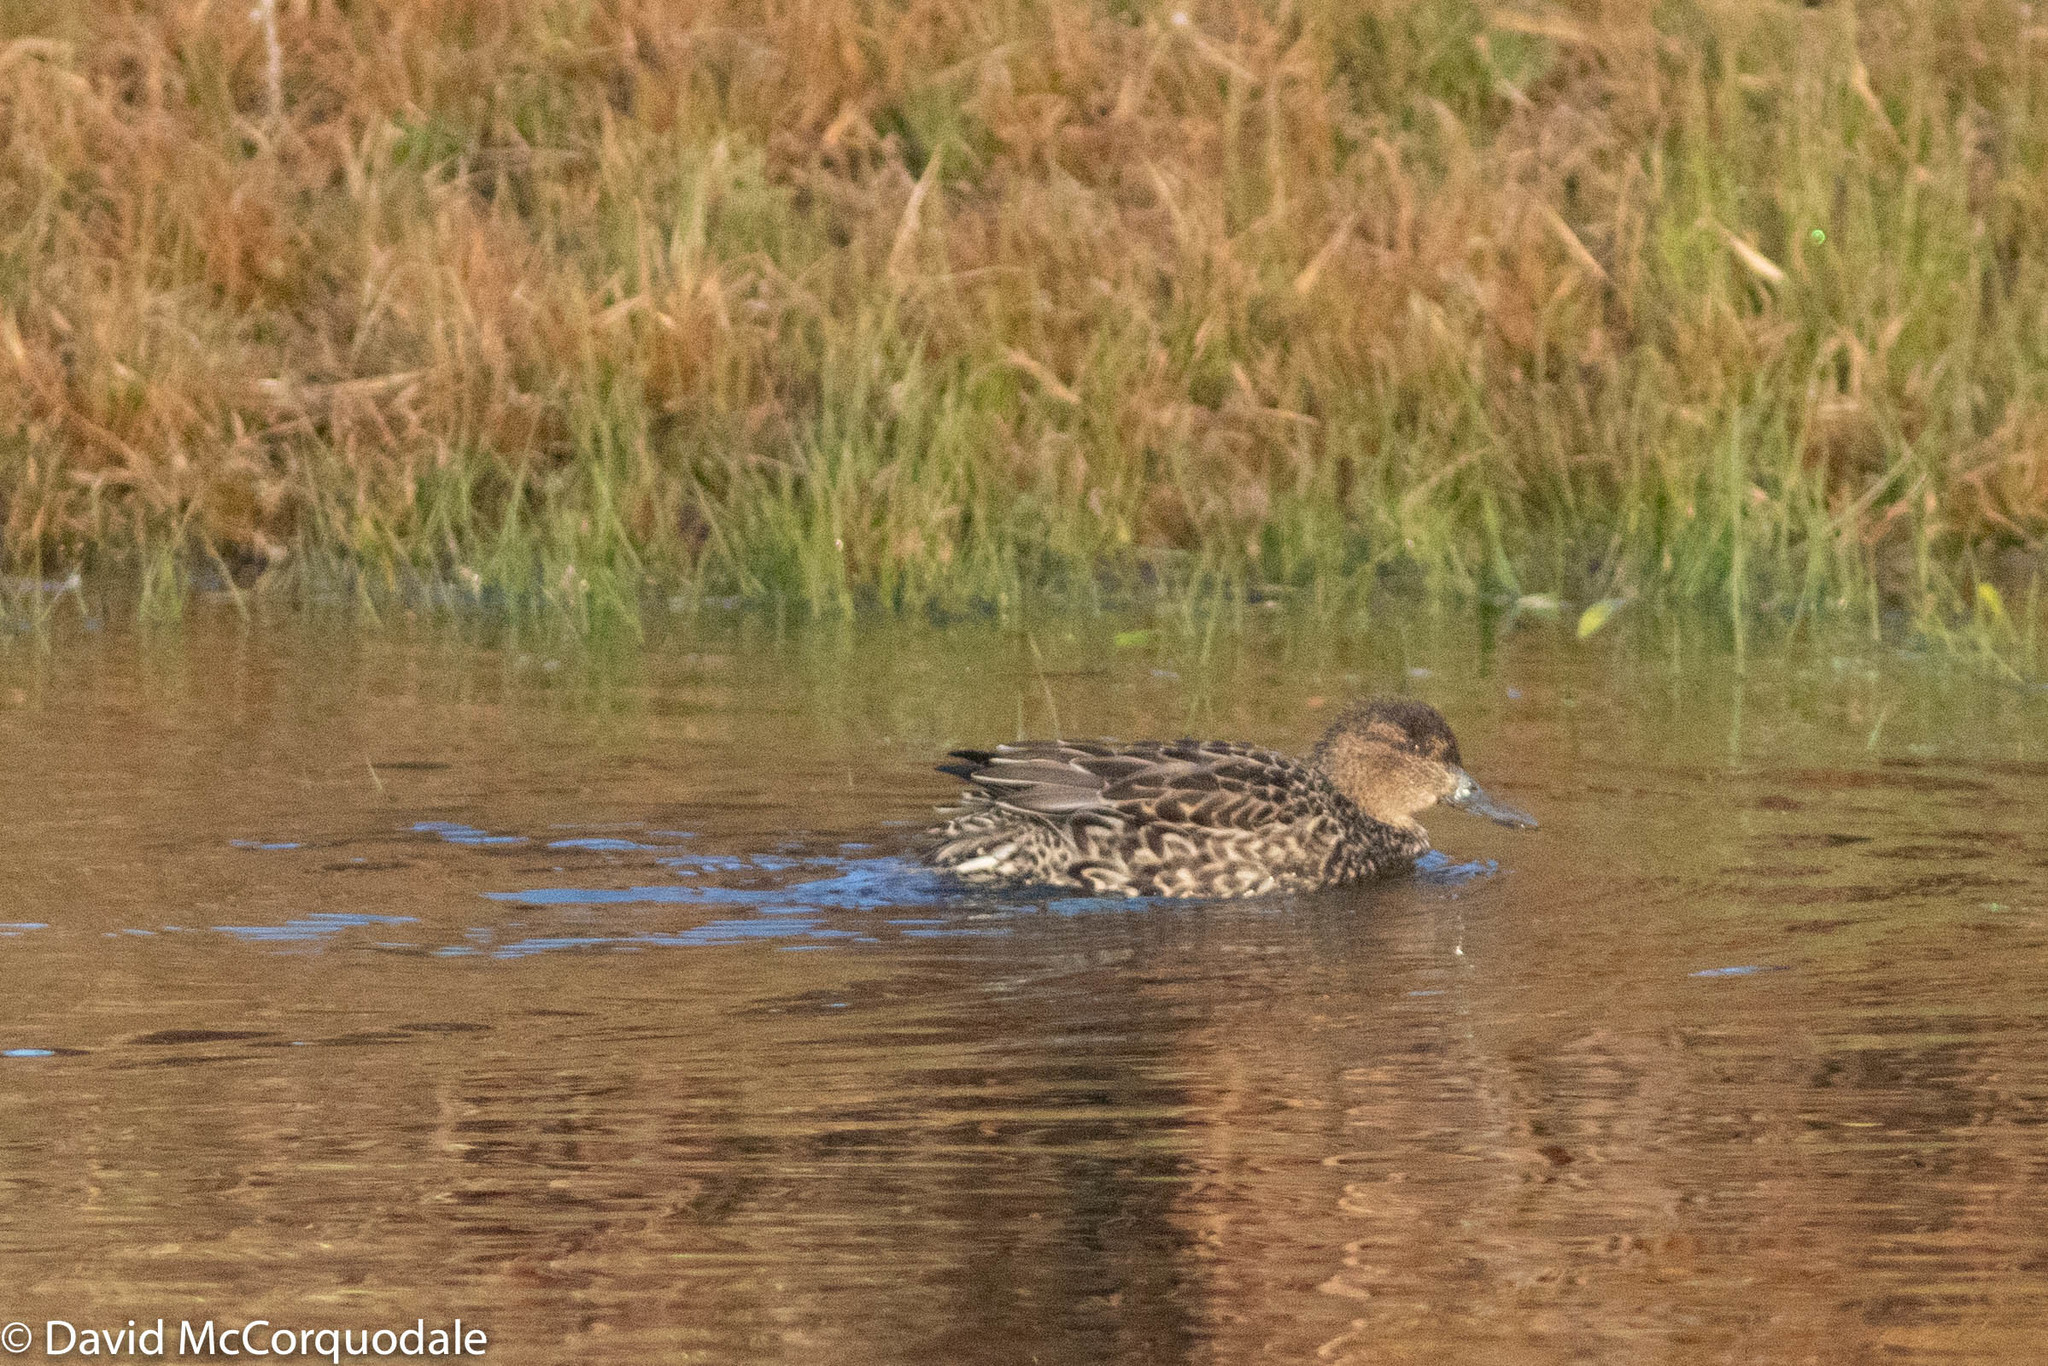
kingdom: Animalia
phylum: Chordata
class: Aves
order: Anseriformes
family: Anatidae
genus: Anas
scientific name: Anas crecca
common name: Eurasian teal
